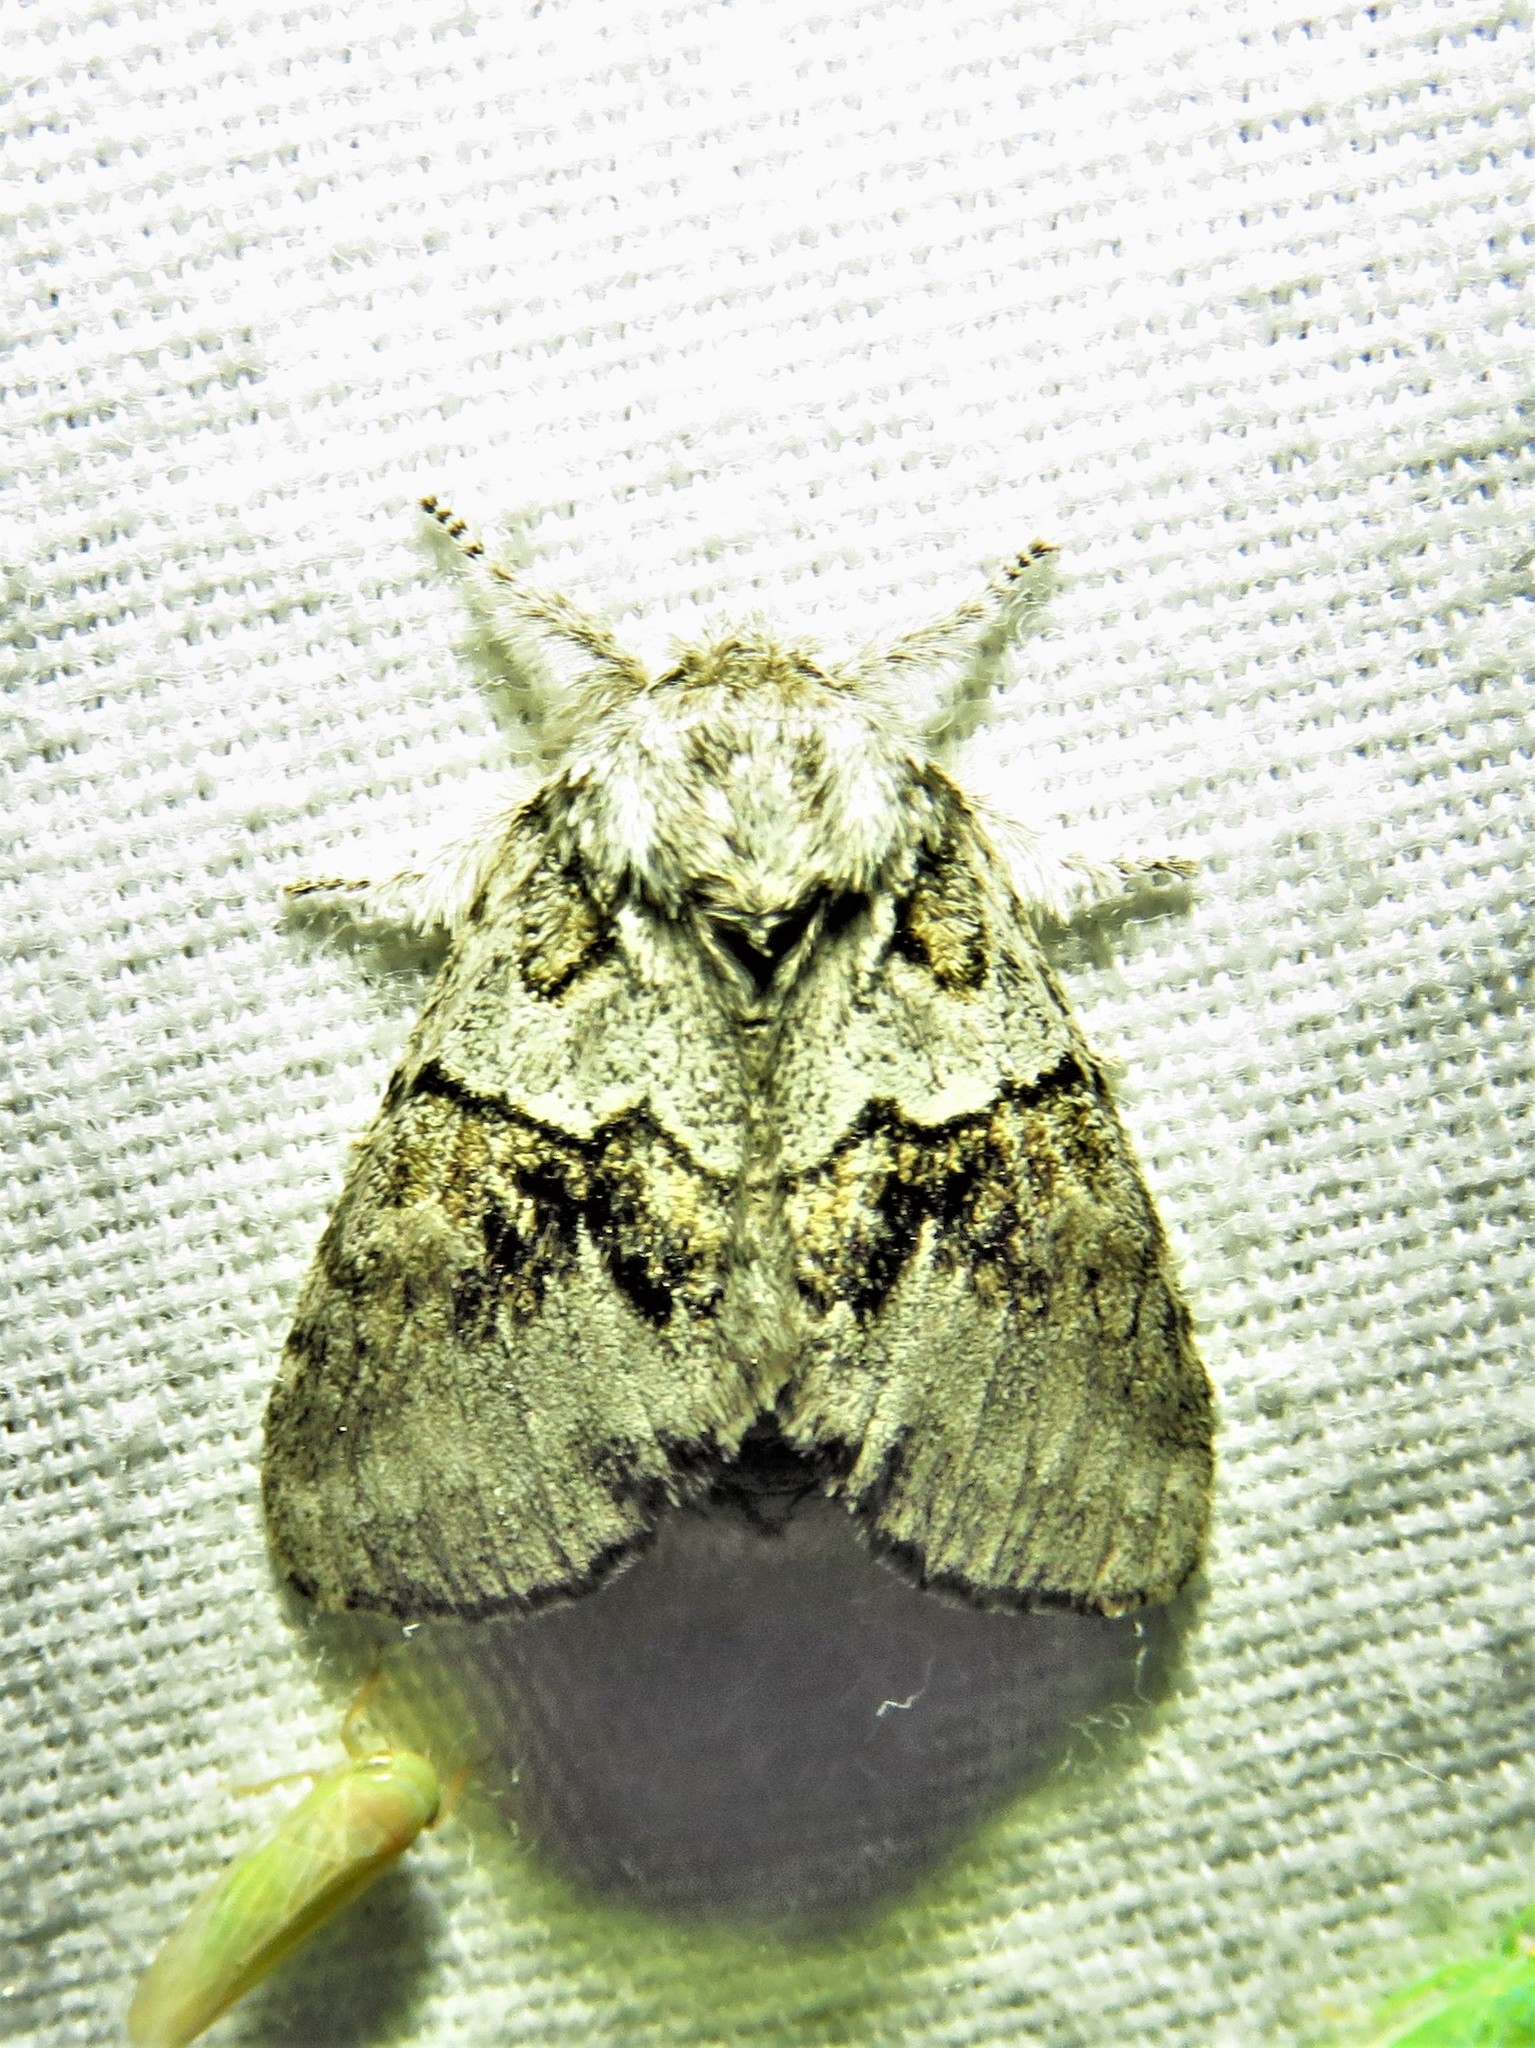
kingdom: Animalia
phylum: Arthropoda
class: Insecta
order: Lepidoptera
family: Notodontidae
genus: Gluphisia
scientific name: Gluphisia septentrionis
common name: Common gluphisia
